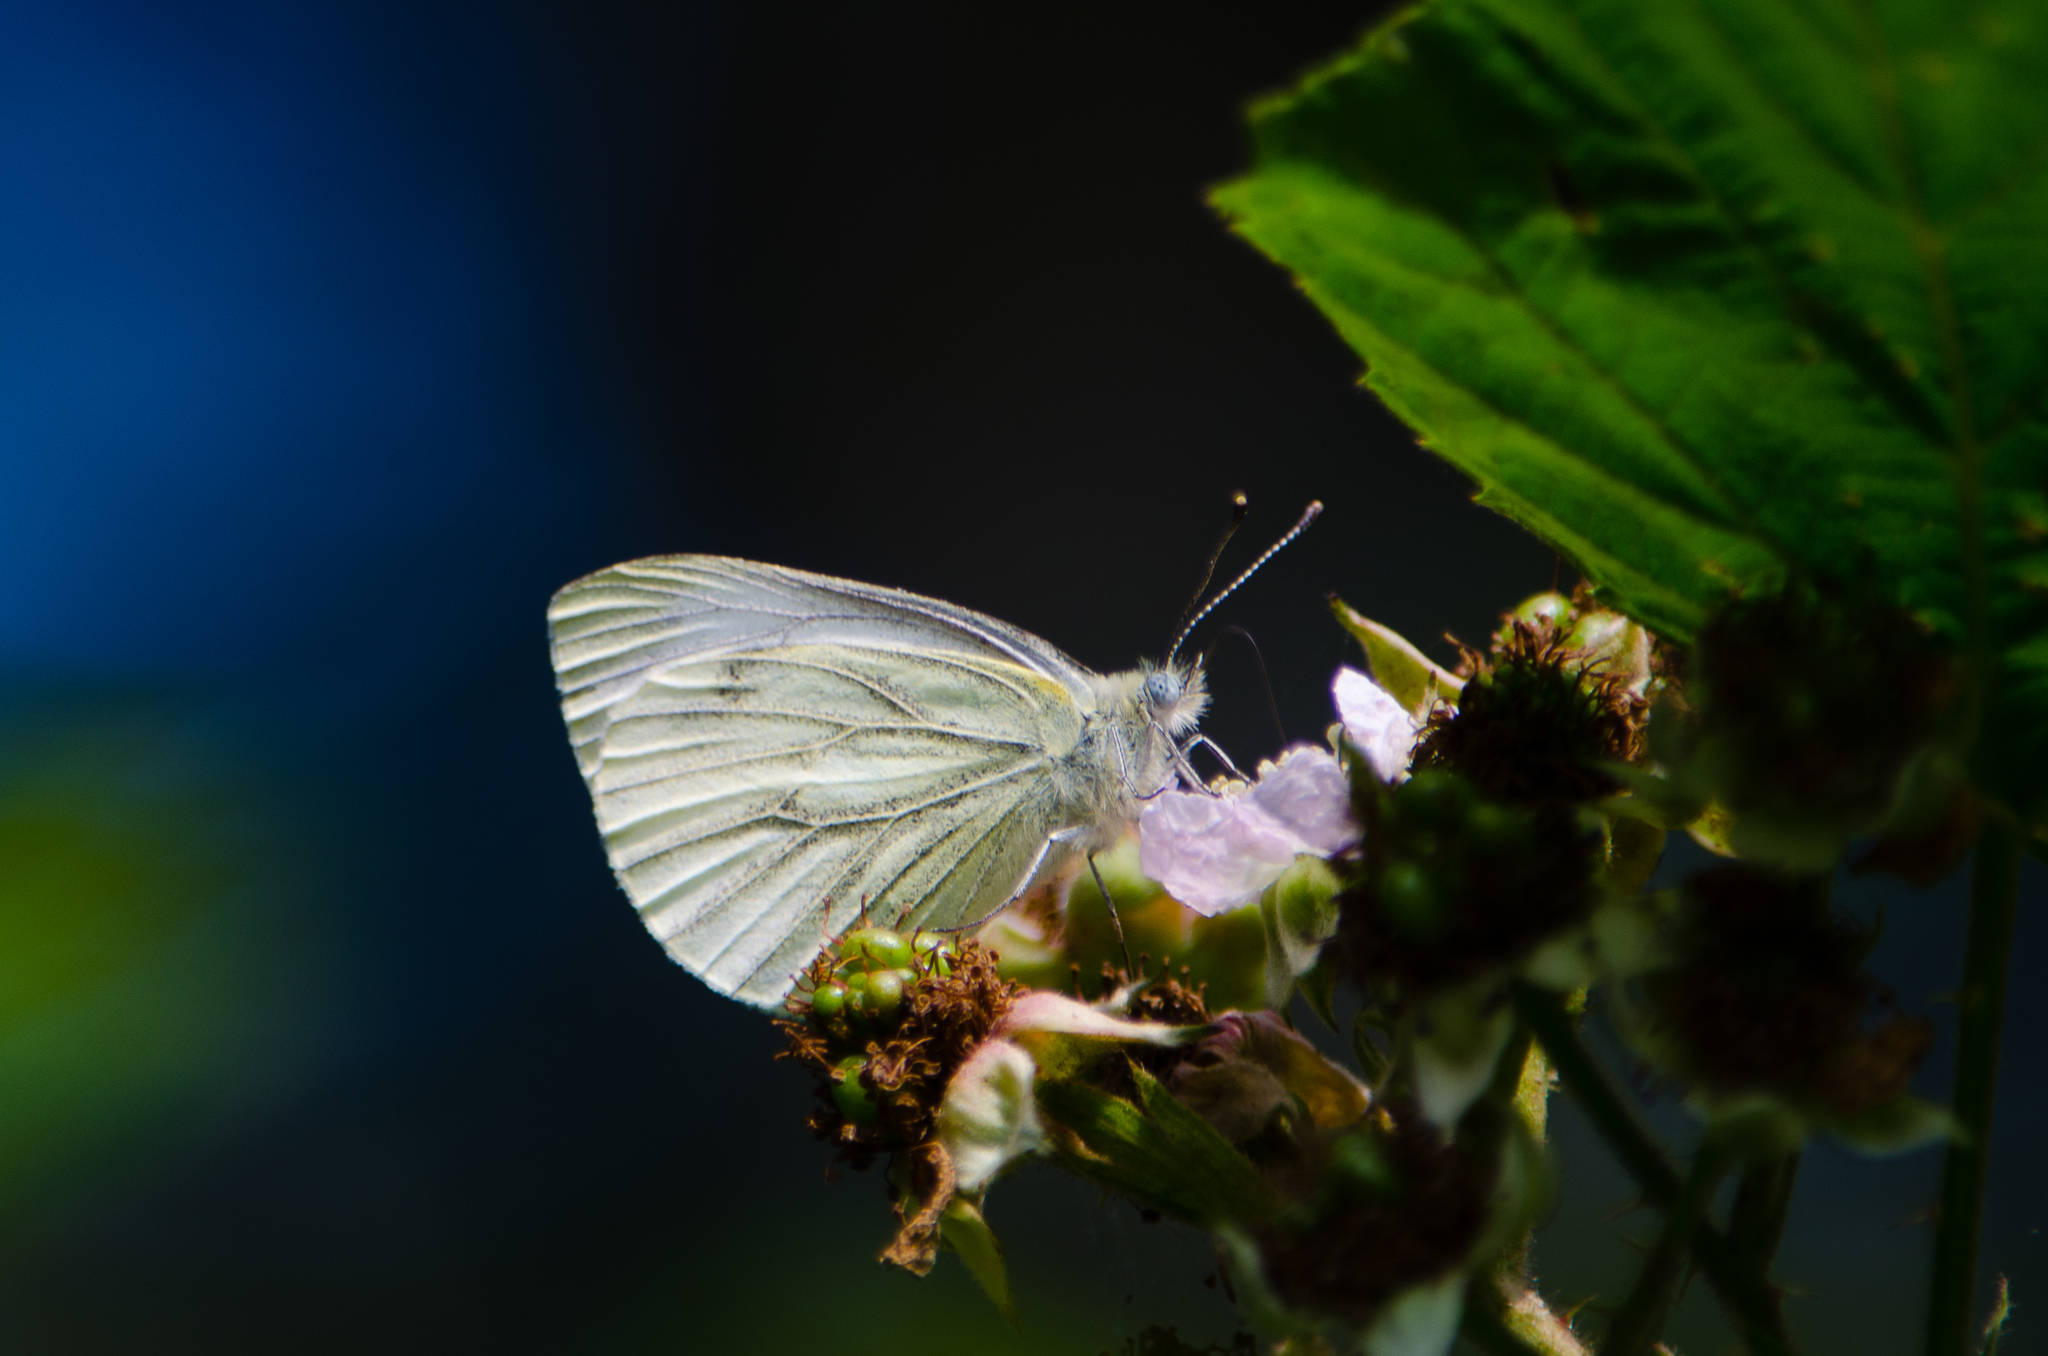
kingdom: Animalia
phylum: Arthropoda
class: Insecta
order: Lepidoptera
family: Pieridae
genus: Pieris
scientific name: Pieris napi
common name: Green-veined white
